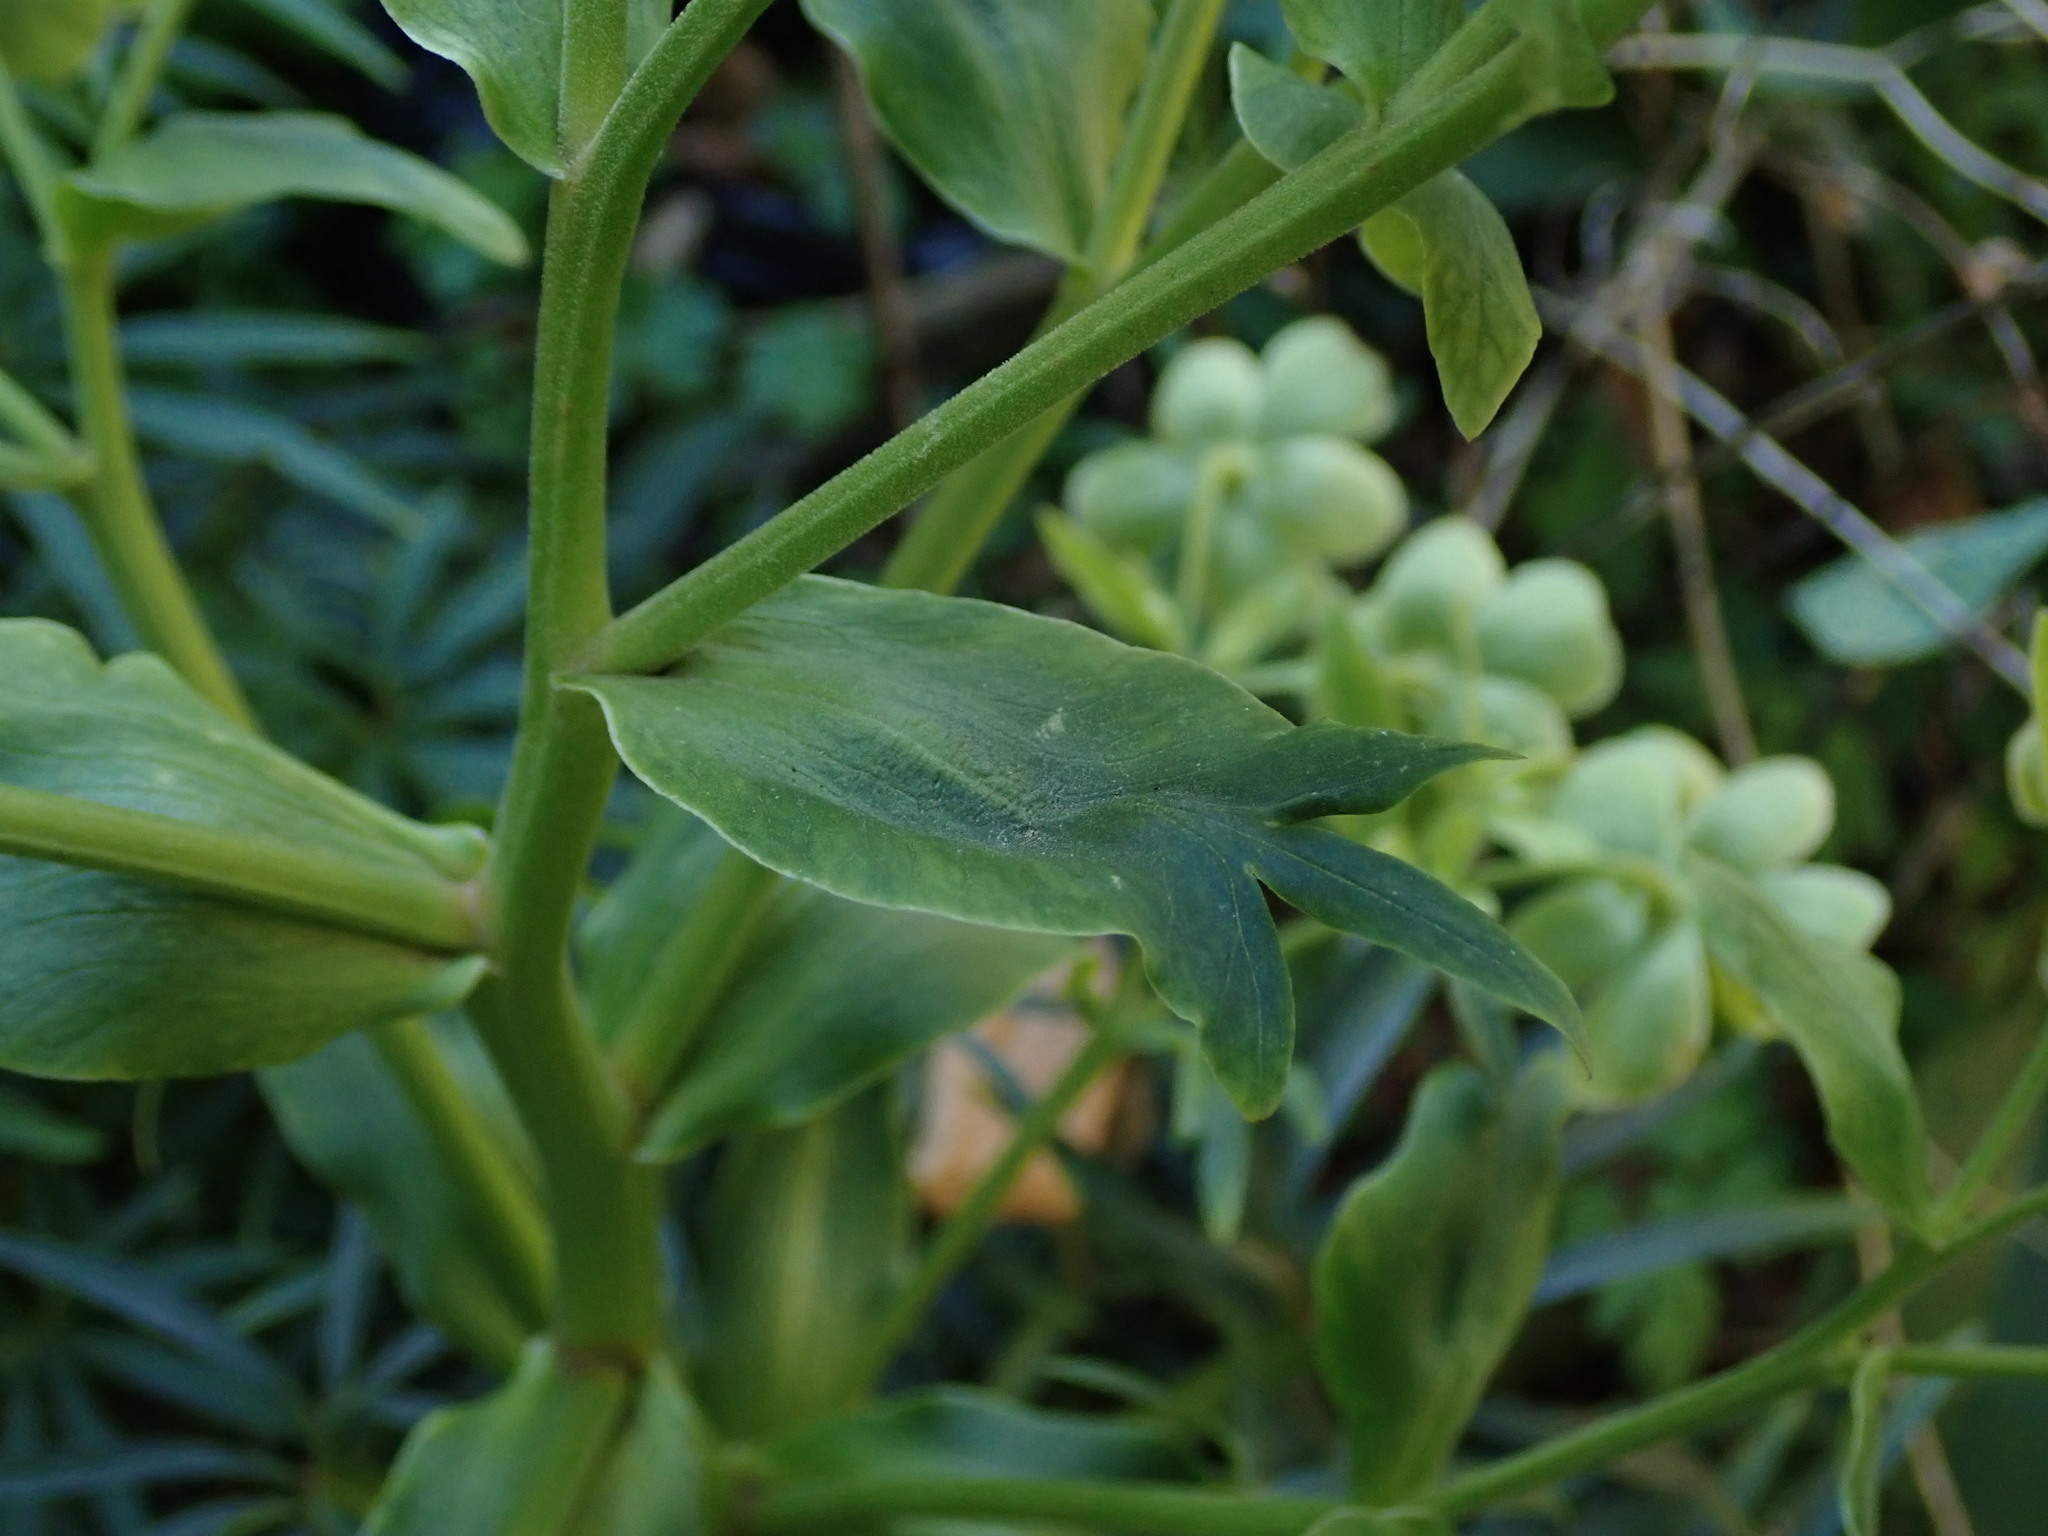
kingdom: Plantae
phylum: Tracheophyta
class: Magnoliopsida
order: Ranunculales
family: Ranunculaceae
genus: Helleborus
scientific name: Helleborus foetidus
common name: Stinking hellebore
